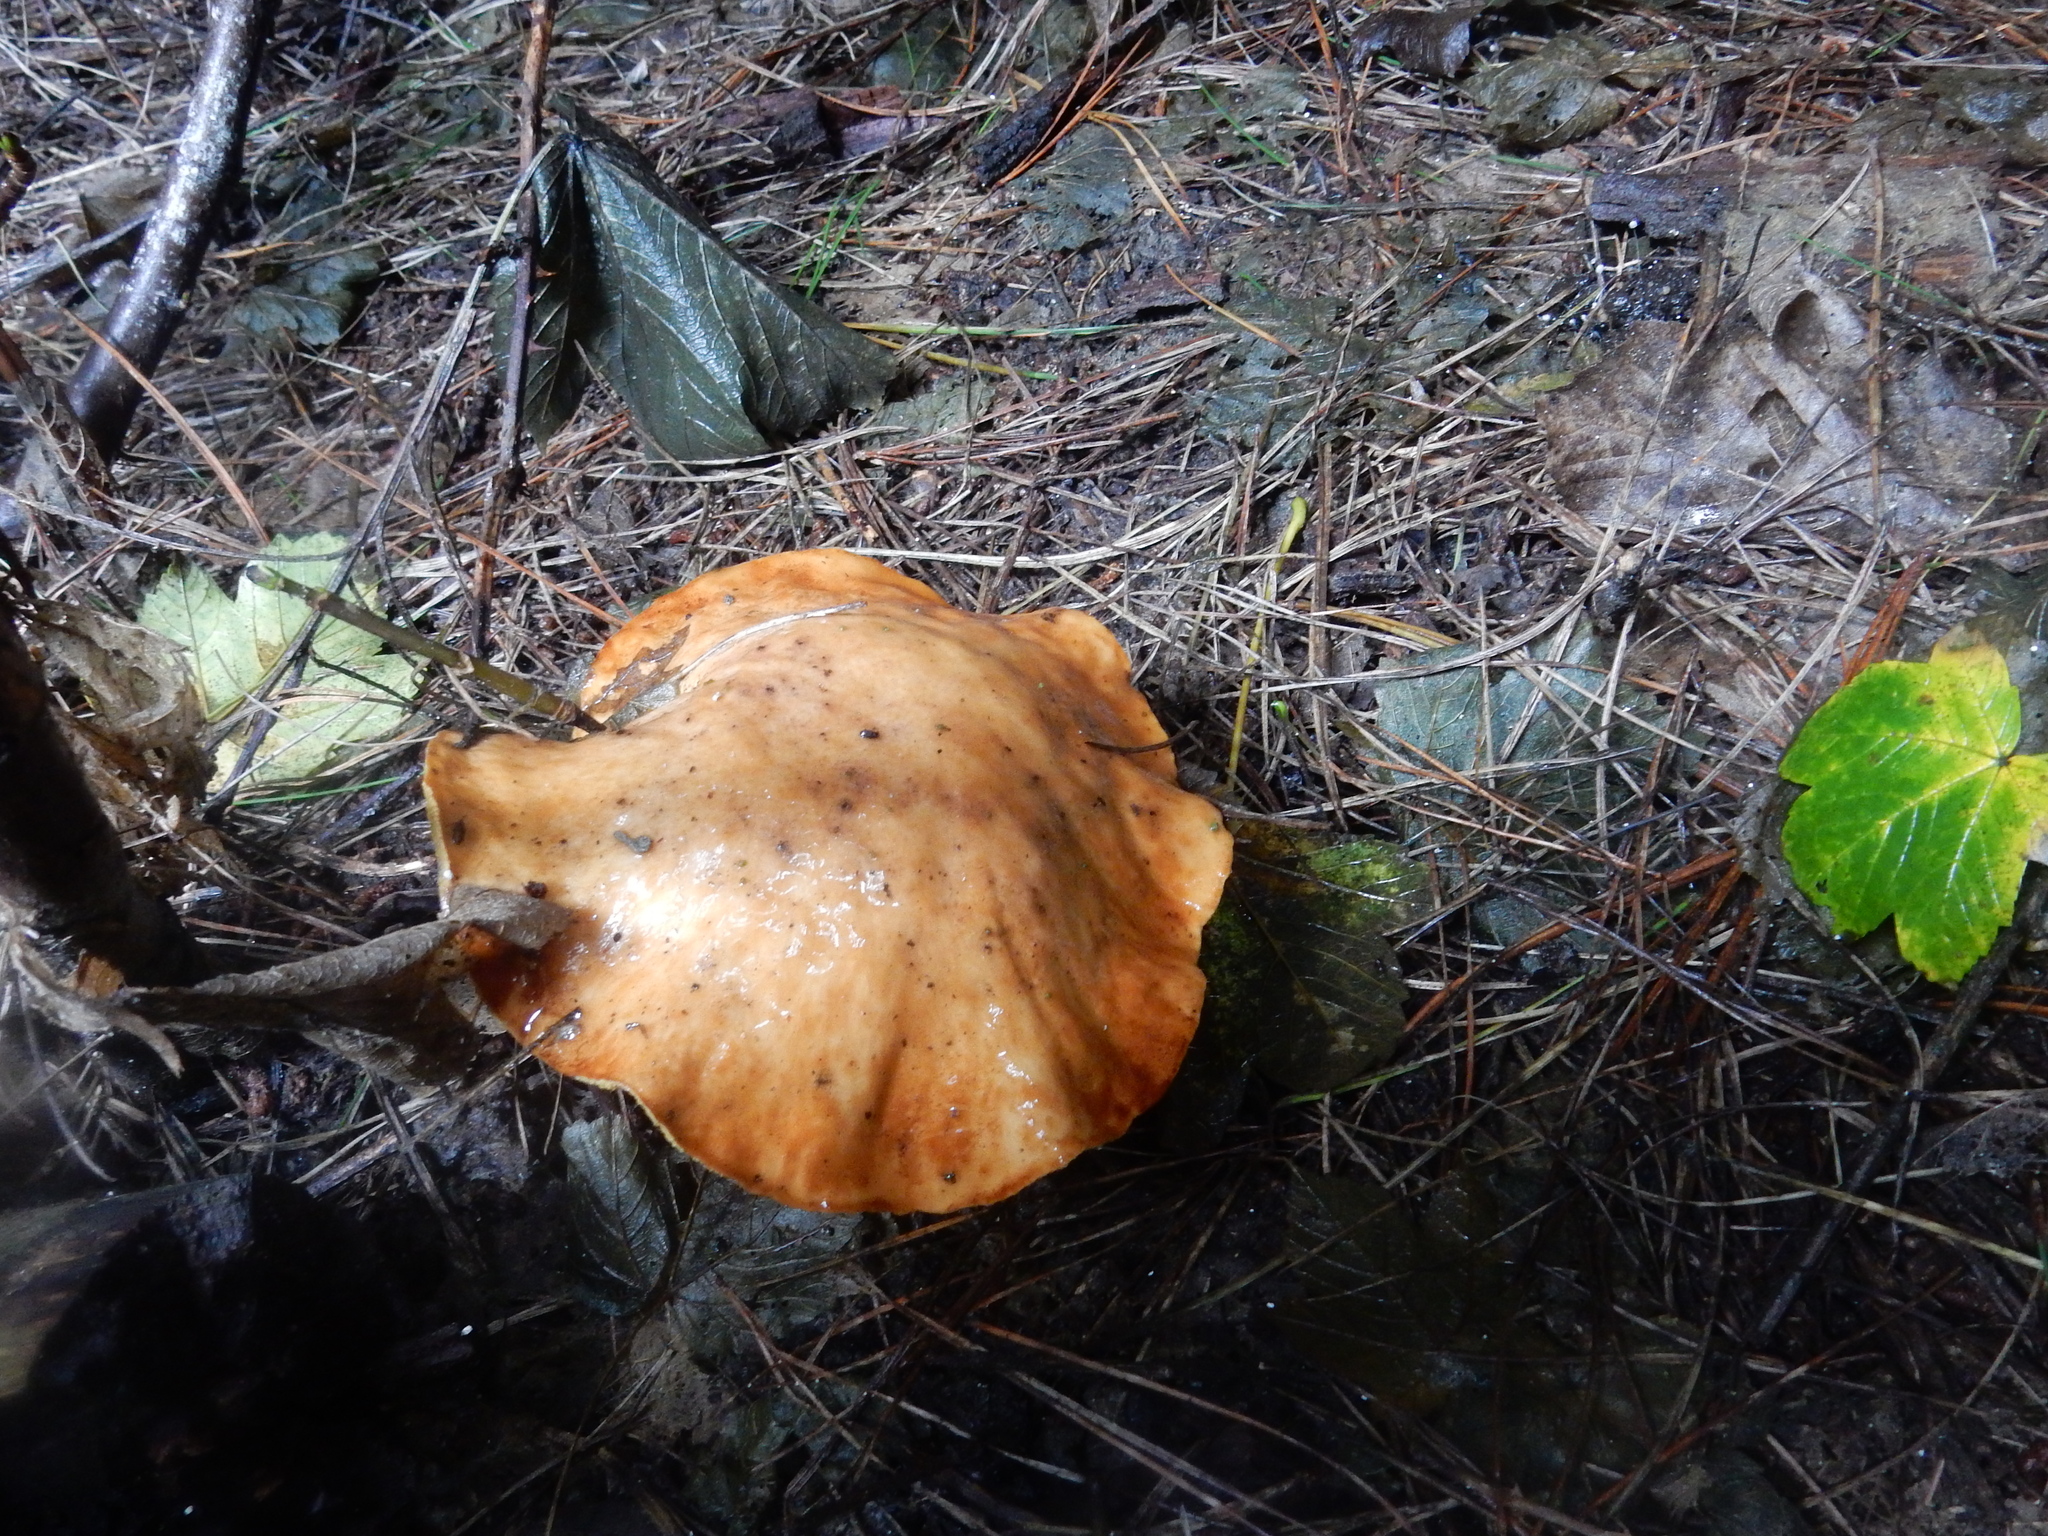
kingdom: Fungi
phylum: Basidiomycota
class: Agaricomycetes
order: Boletales
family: Suillaceae
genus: Suillus
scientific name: Suillus granulatus
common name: Weeping bolete
